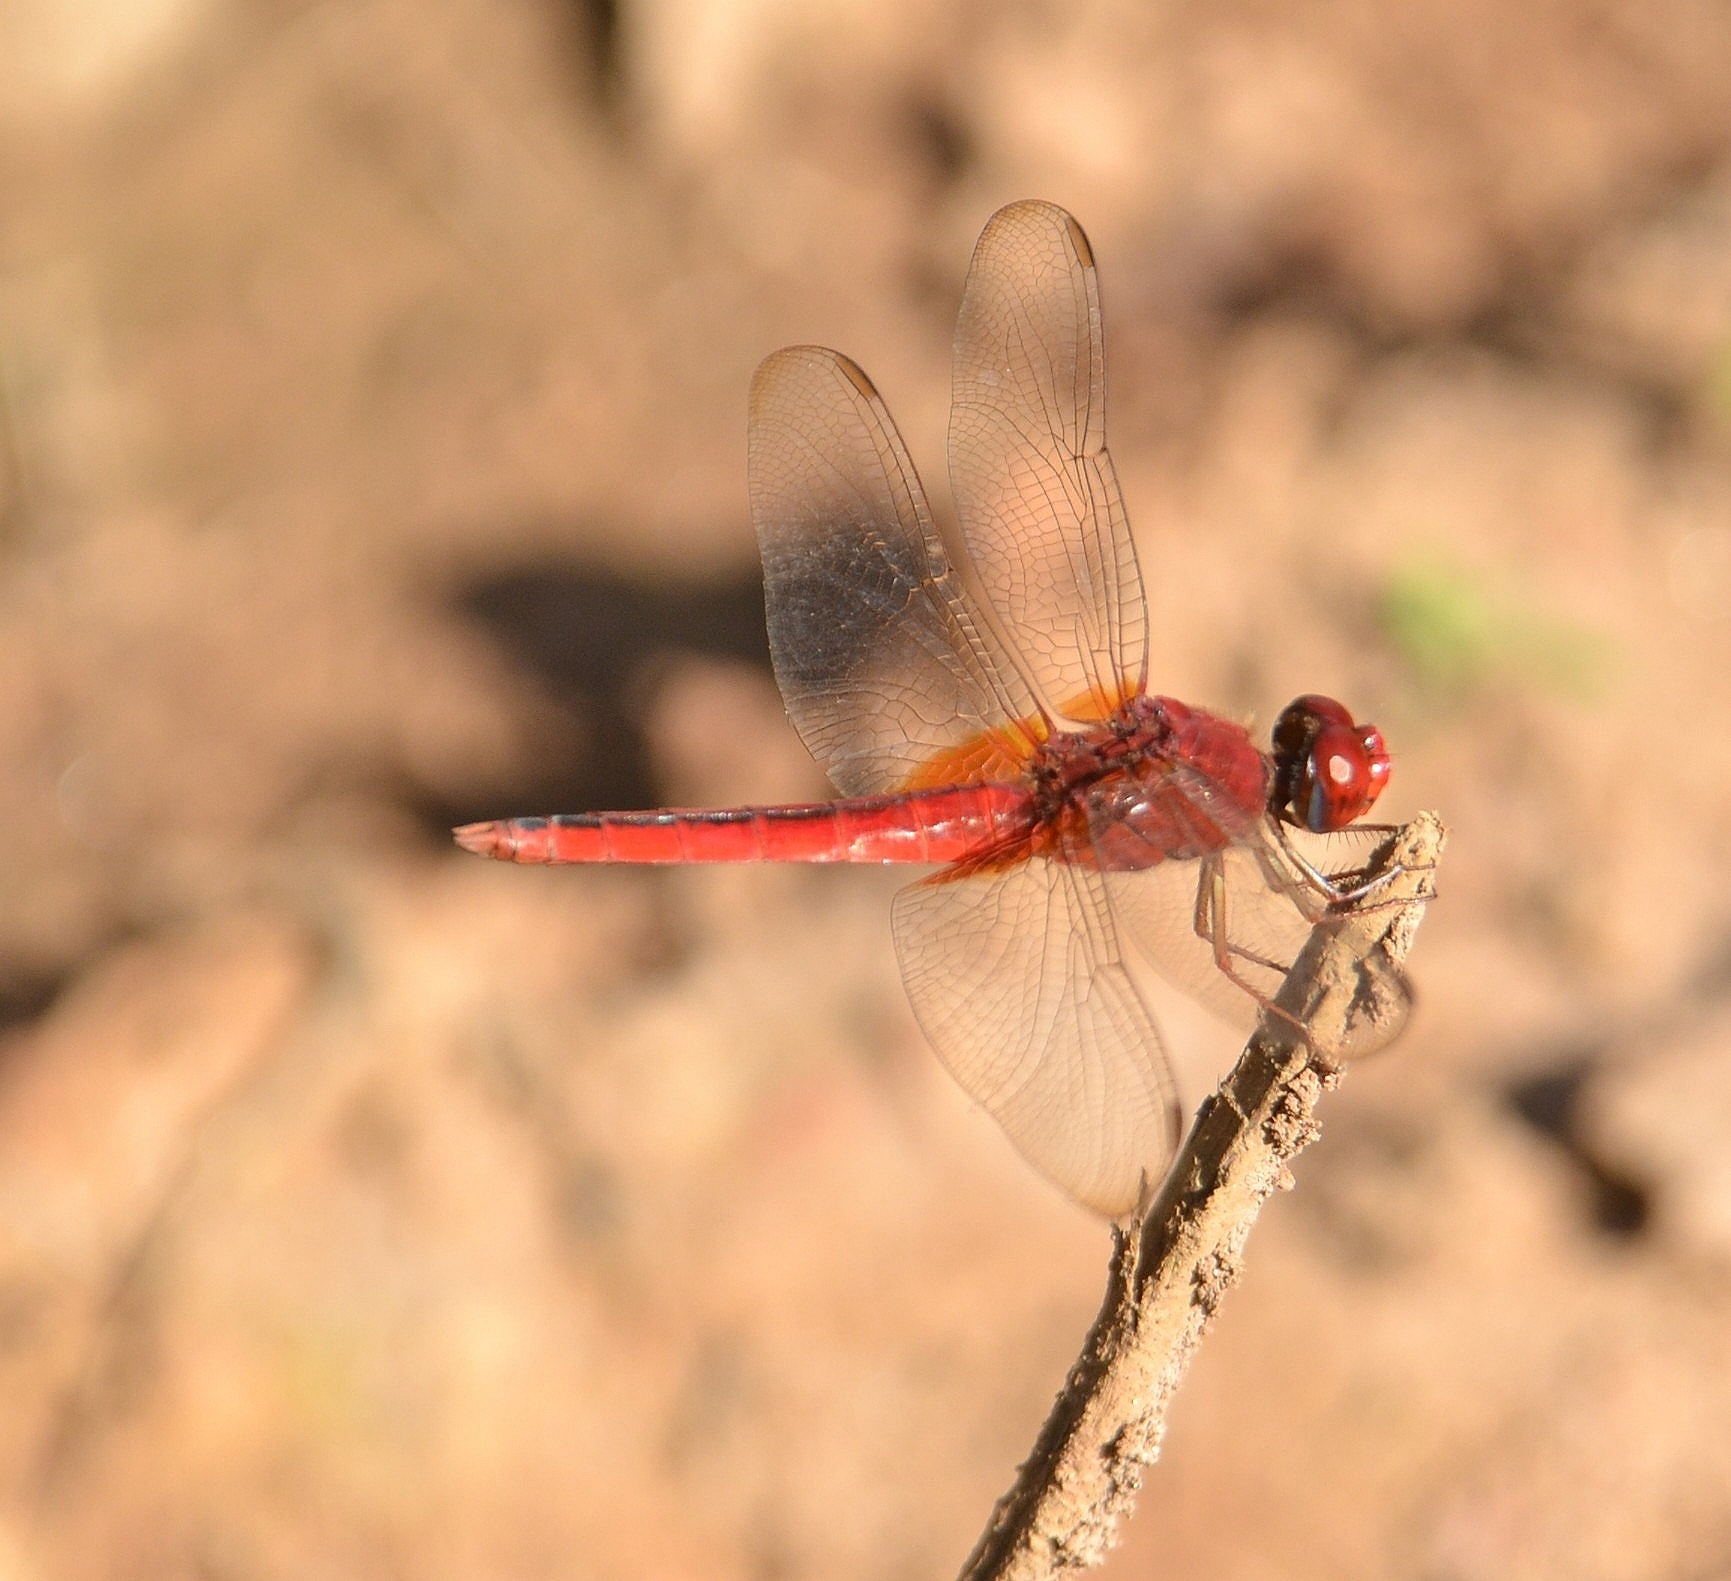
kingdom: Animalia
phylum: Arthropoda
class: Insecta
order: Odonata
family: Libellulidae
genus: Crocothemis
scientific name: Crocothemis servilia
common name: Scarlet skimmer
